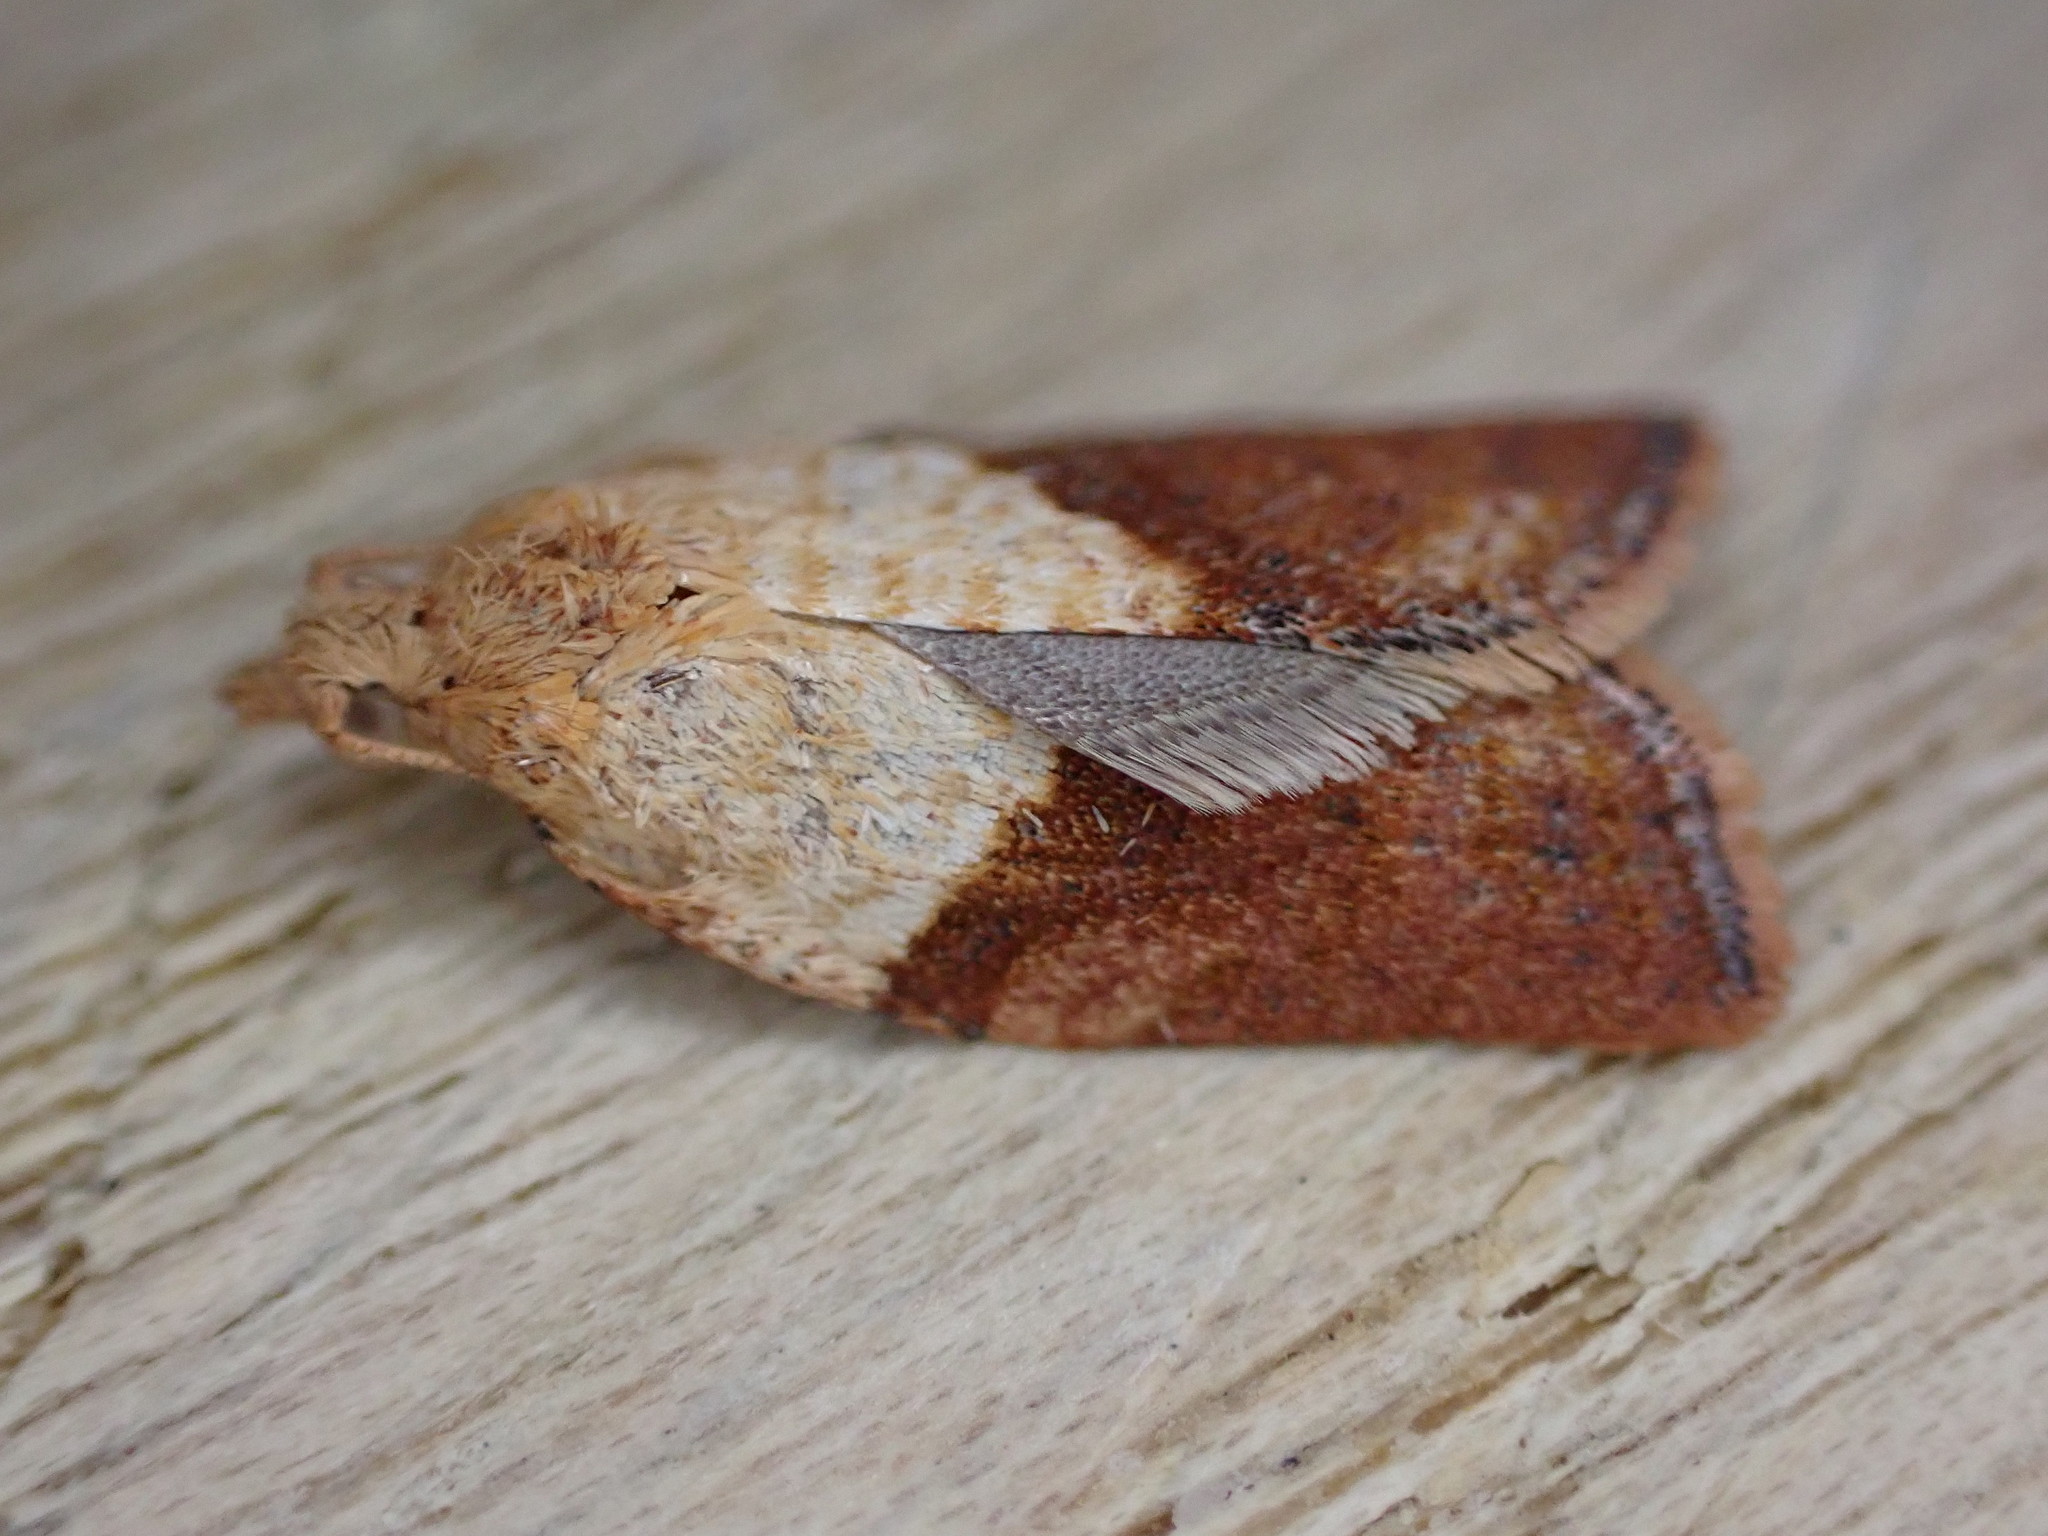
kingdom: Animalia
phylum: Arthropoda
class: Insecta
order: Lepidoptera
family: Tortricidae
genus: Epiphyas
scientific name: Epiphyas postvittana
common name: Light brown apple moth
